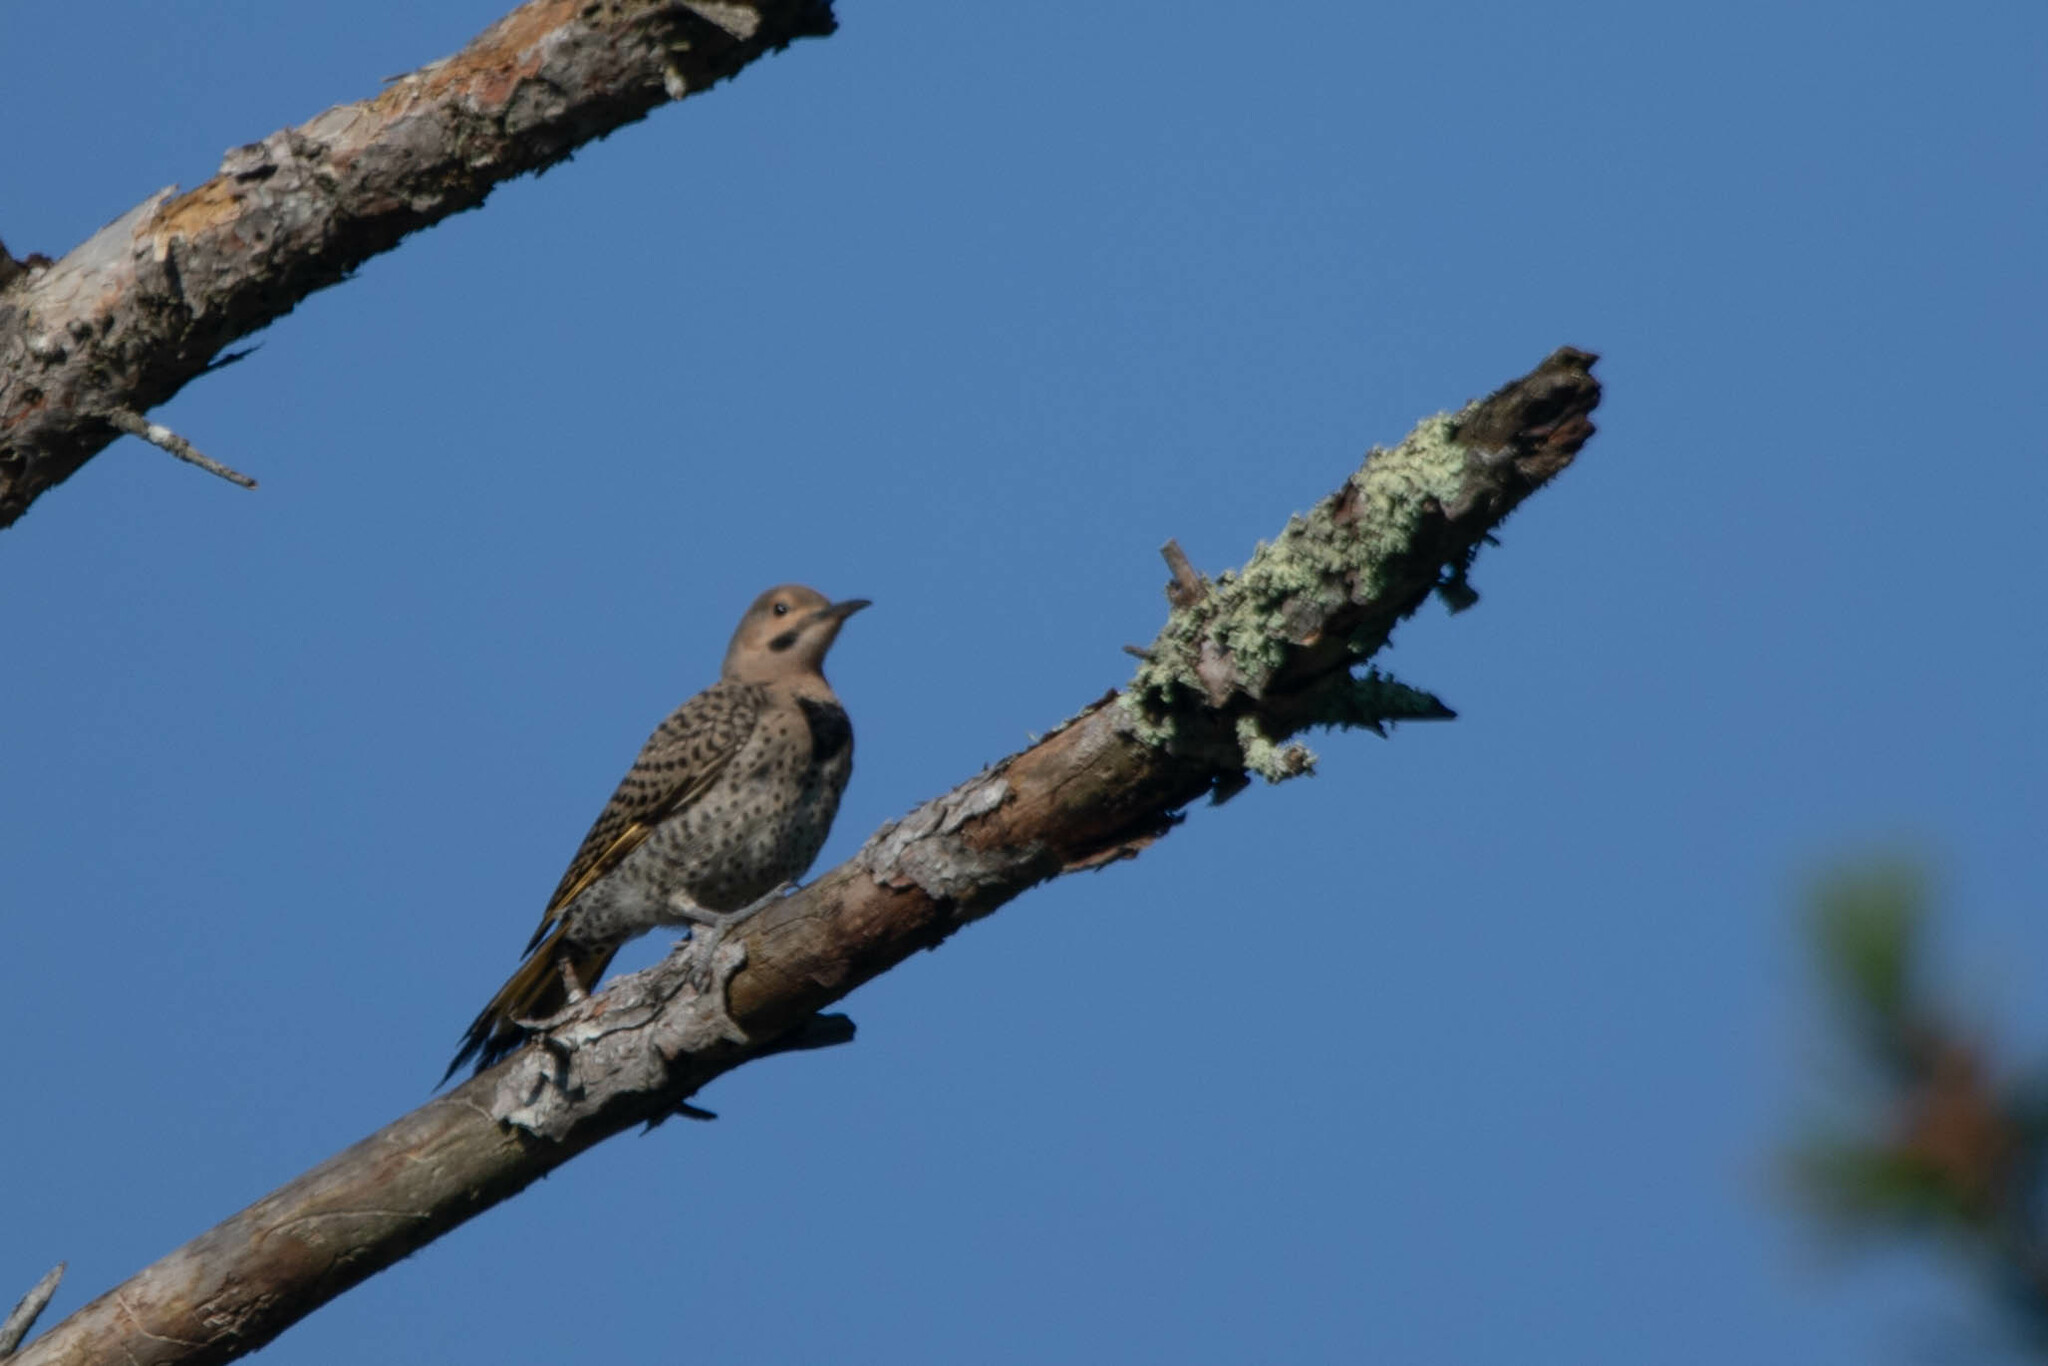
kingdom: Animalia
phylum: Chordata
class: Aves
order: Piciformes
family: Picidae
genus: Colaptes
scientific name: Colaptes auratus
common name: Northern flicker
